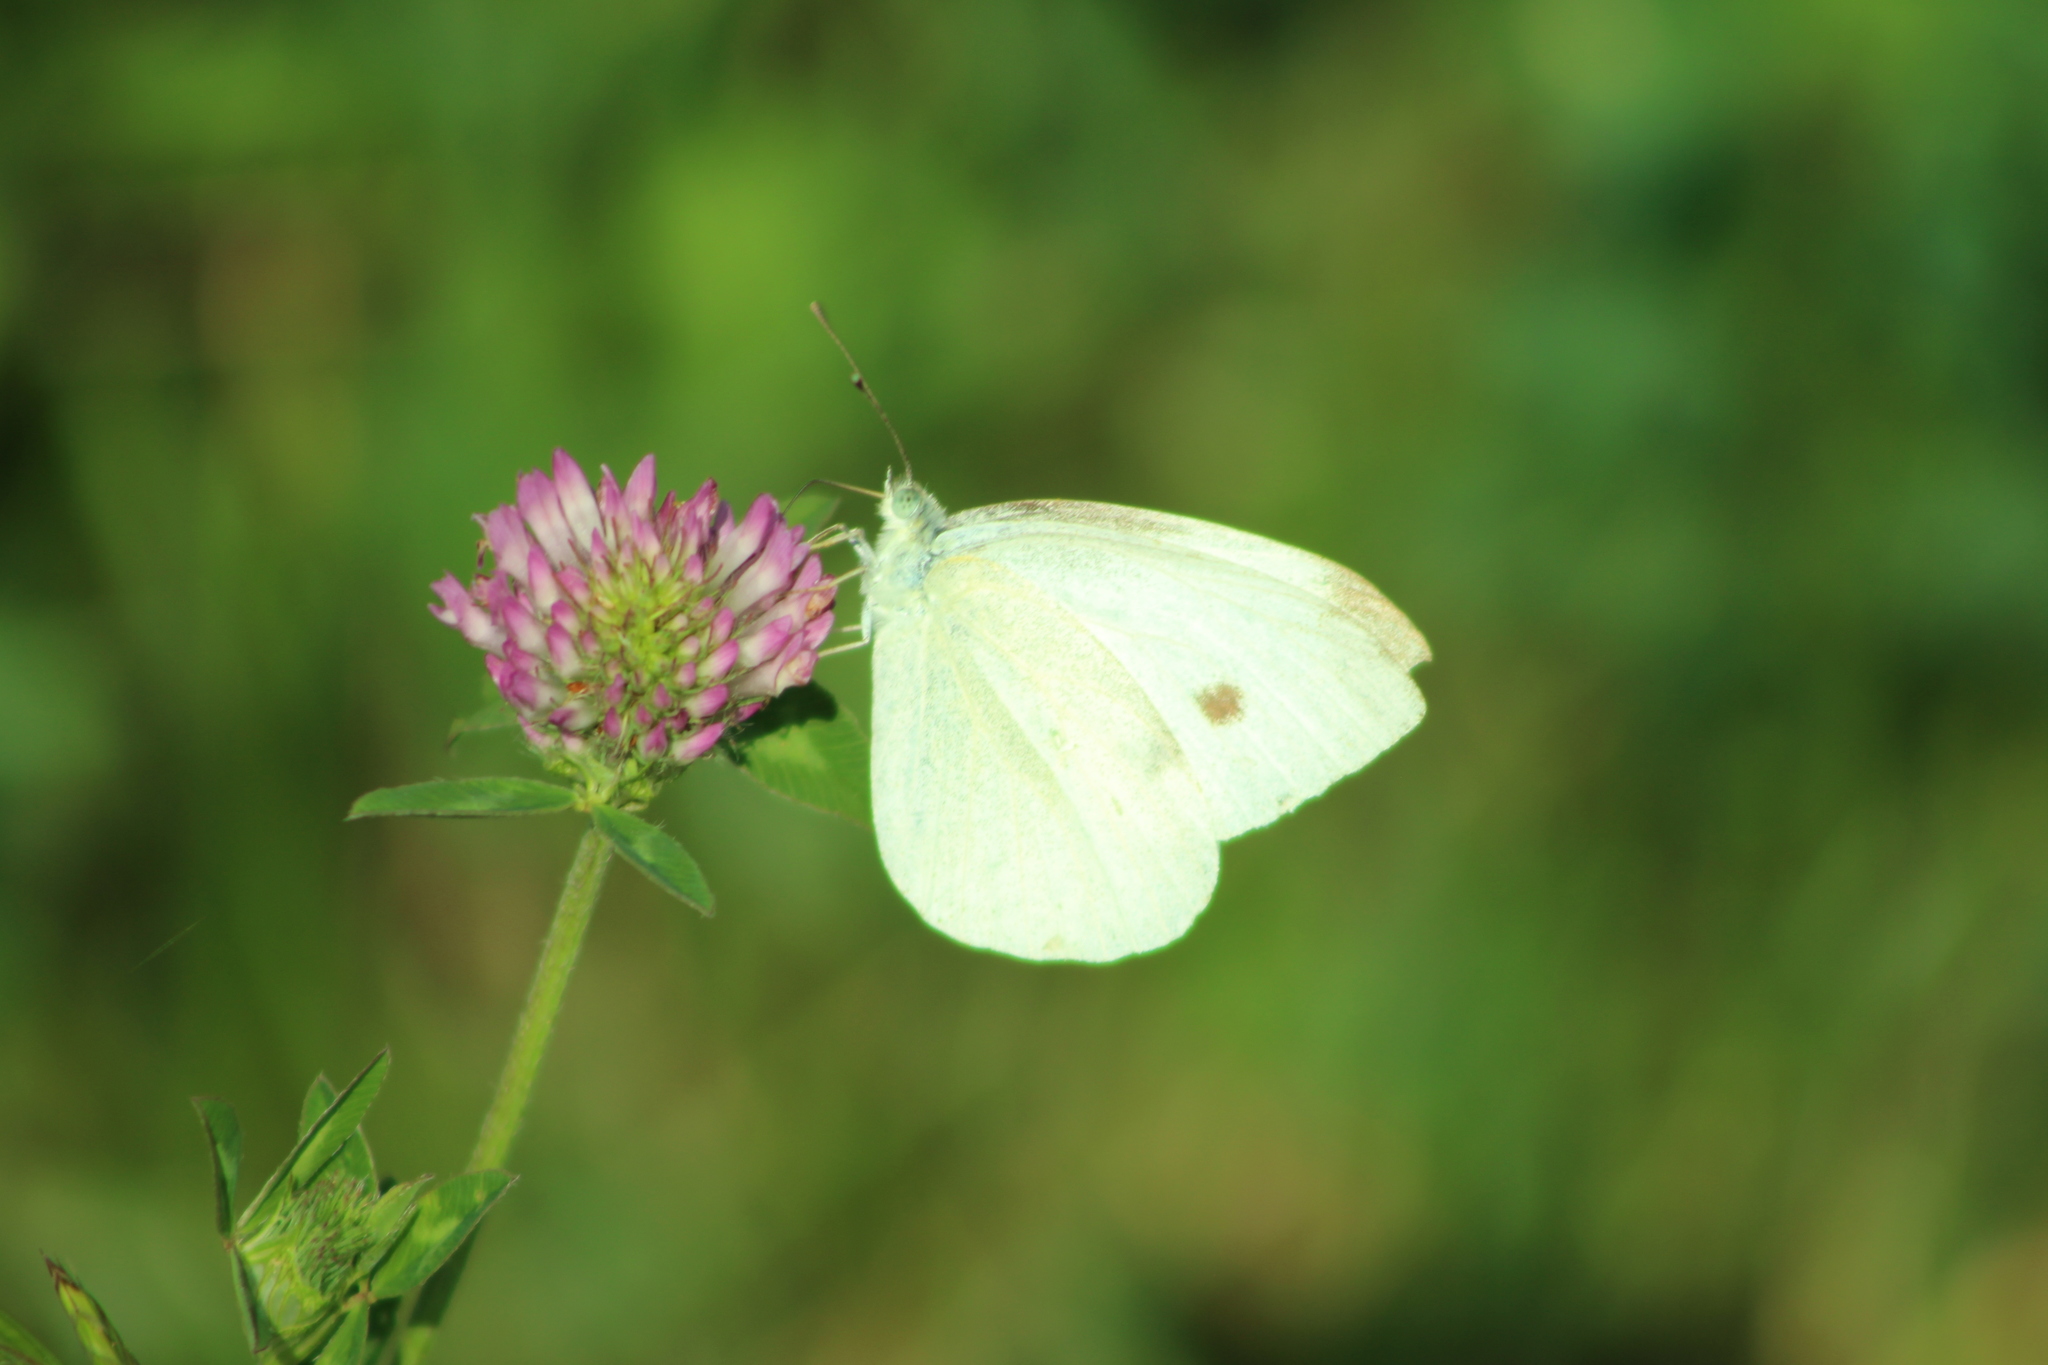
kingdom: Animalia
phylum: Arthropoda
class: Insecta
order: Lepidoptera
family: Pieridae
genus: Pieris
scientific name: Pieris rapae
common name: Small white
